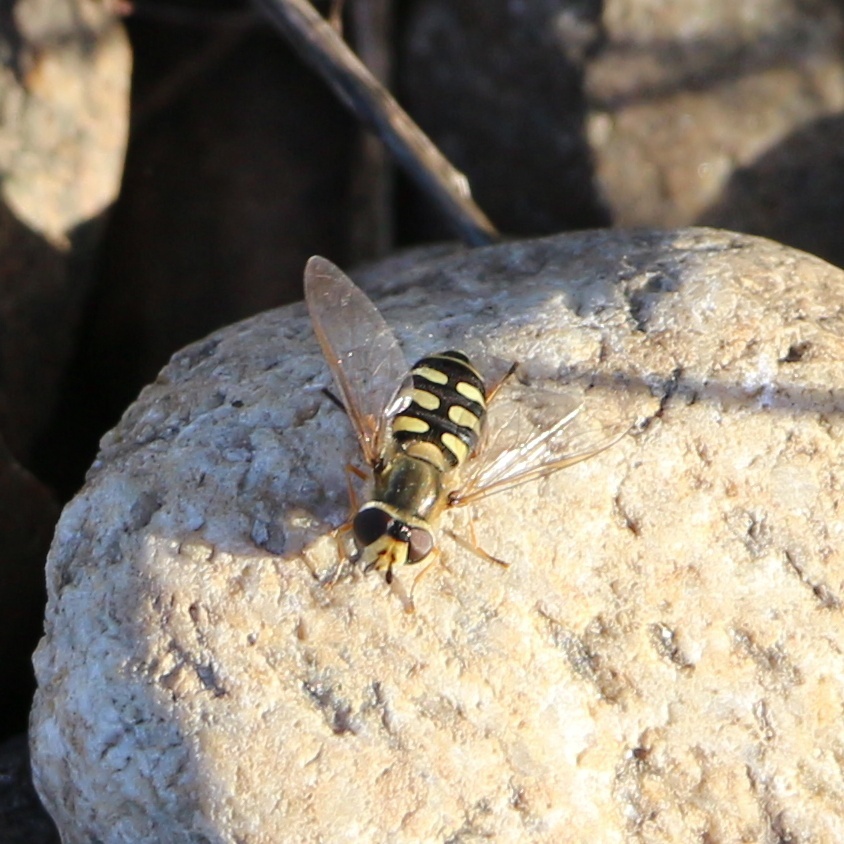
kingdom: Animalia
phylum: Arthropoda
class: Insecta
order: Diptera
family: Syrphidae
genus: Eupeodes
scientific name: Eupeodes corollae
